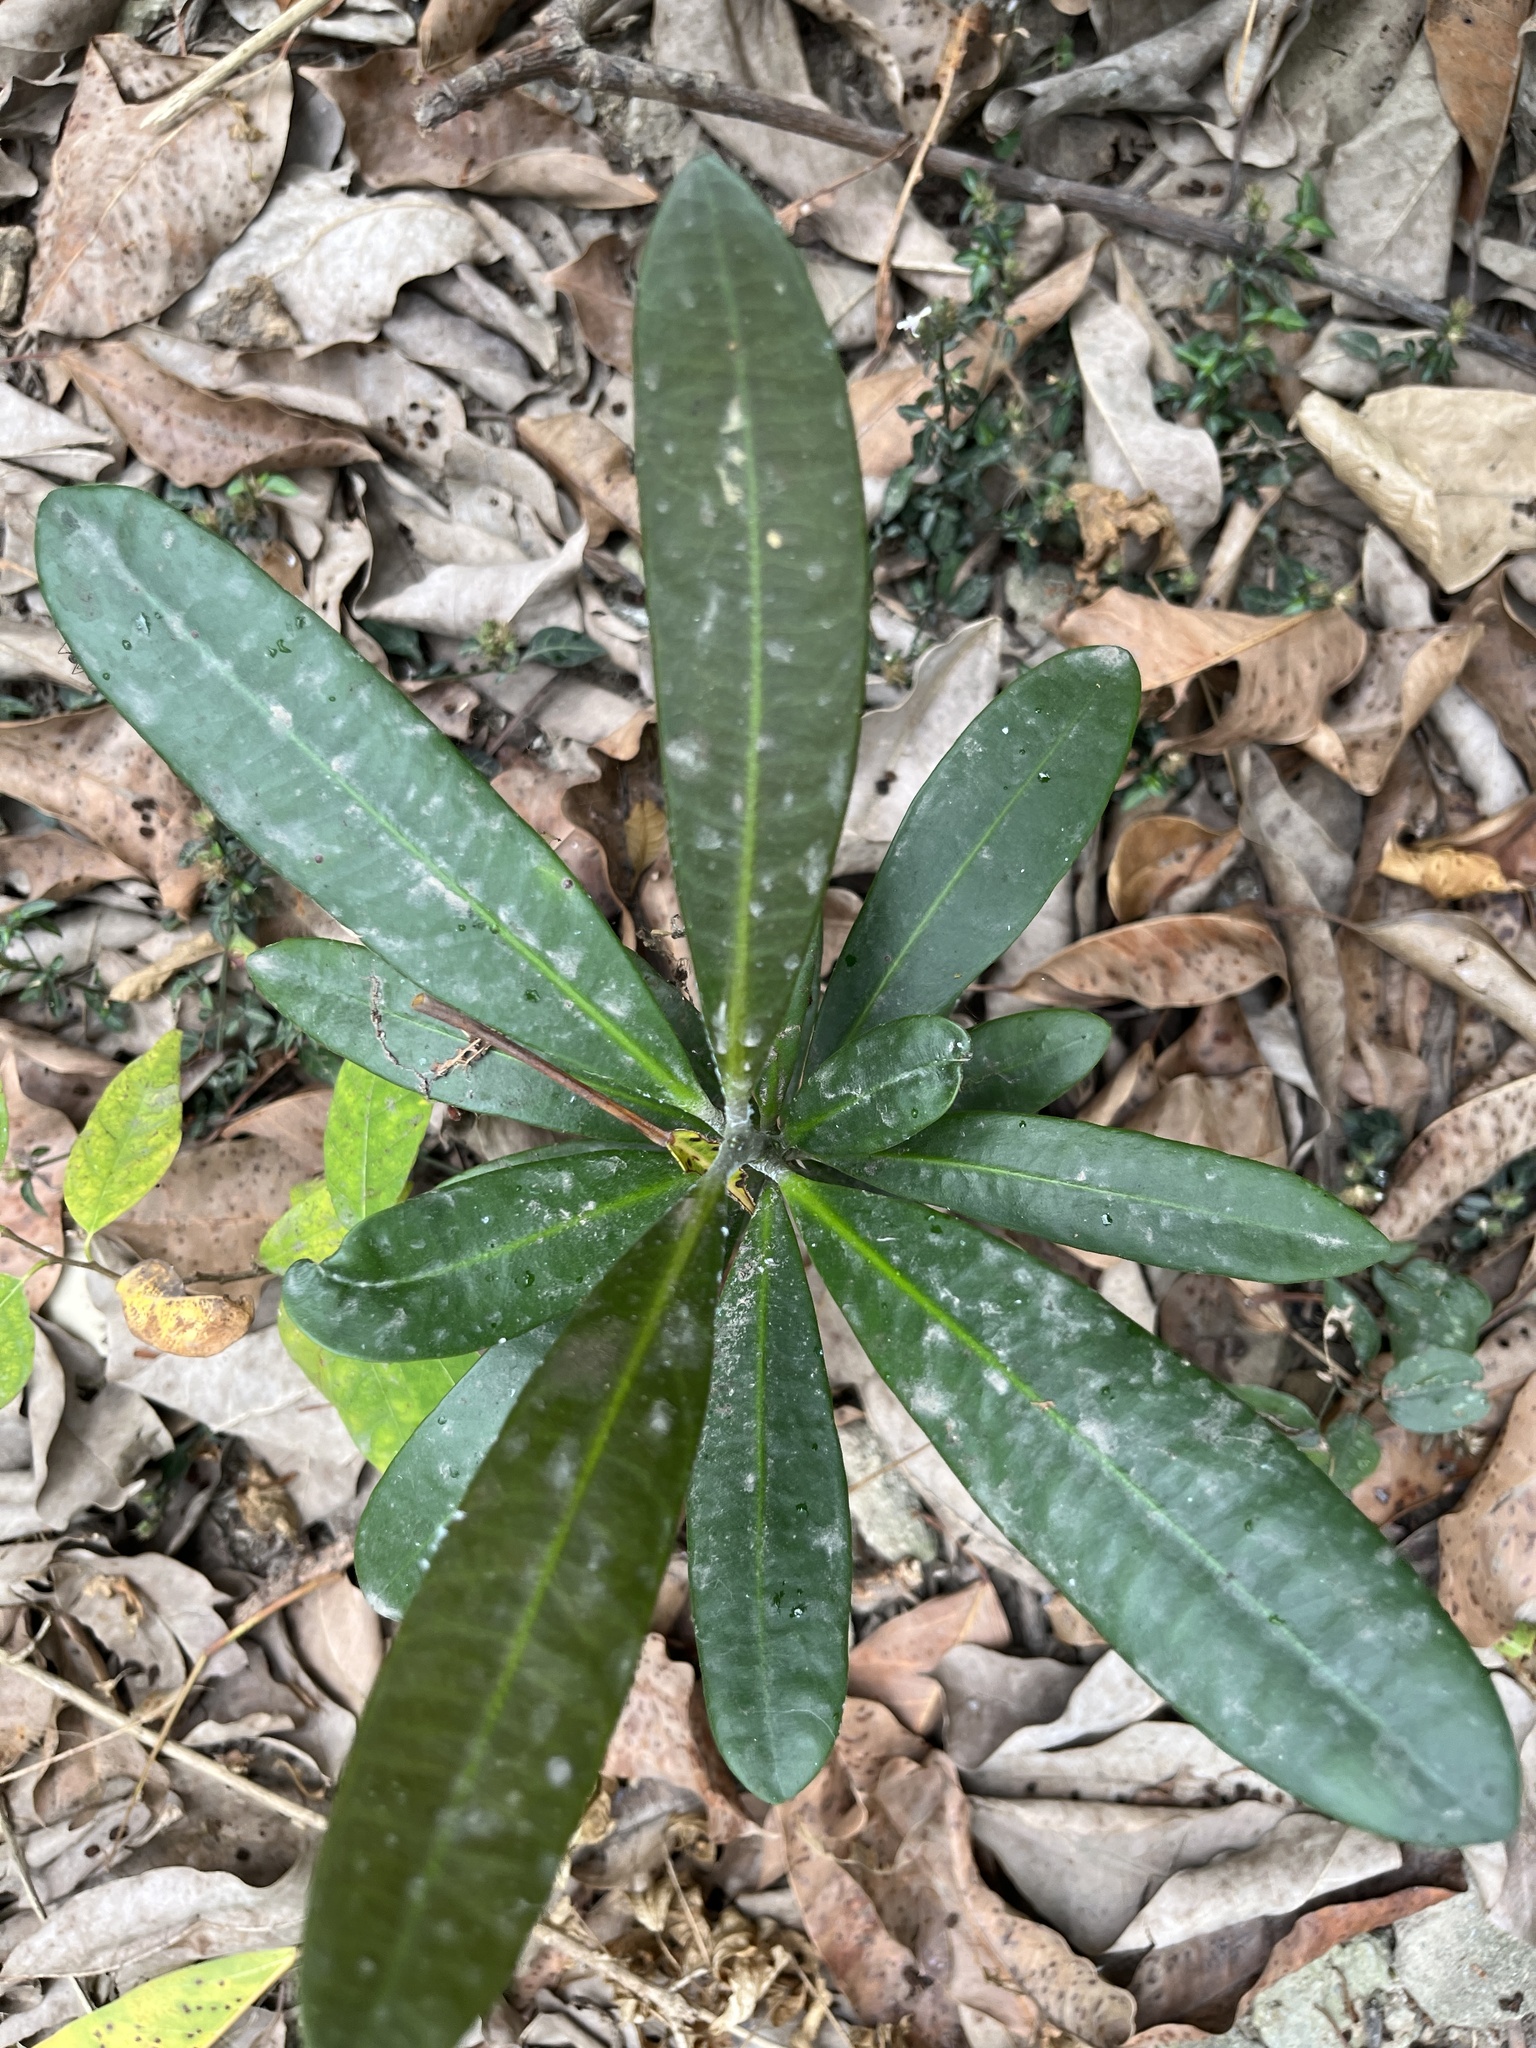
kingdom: Plantae
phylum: Tracheophyta
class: Magnoliopsida
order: Malpighiales
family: Euphorbiaceae
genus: Excoecaria
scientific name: Excoecaria kawakamii
